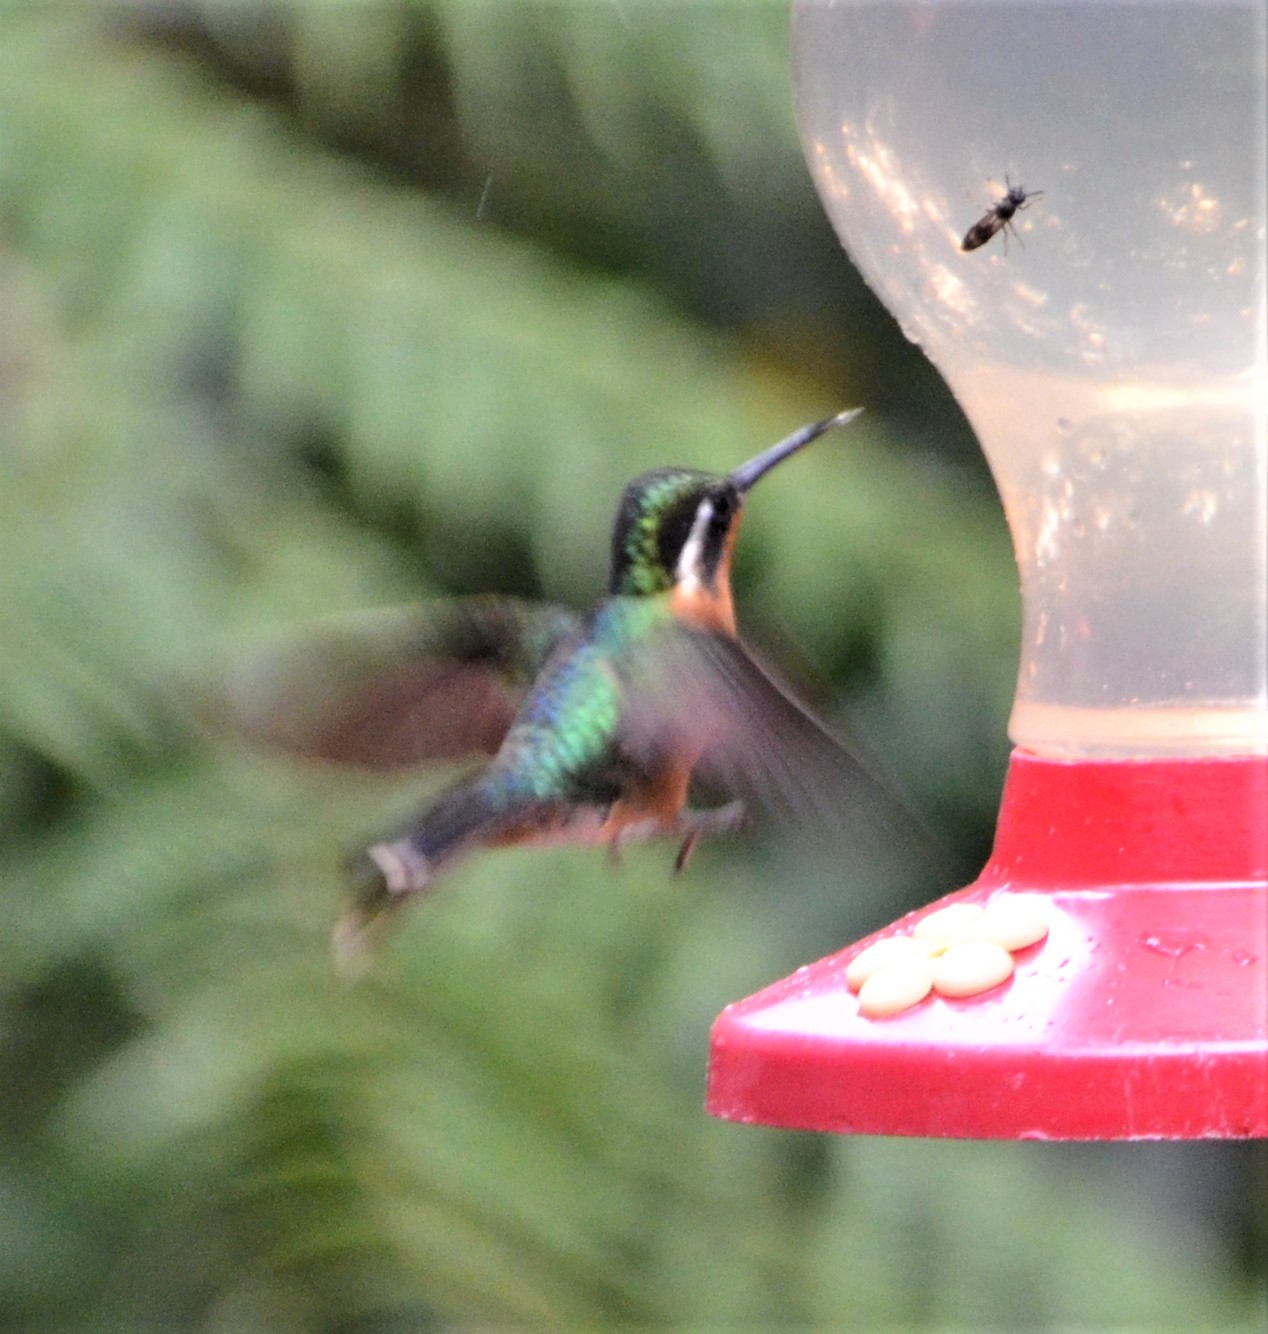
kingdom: Animalia
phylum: Chordata
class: Aves
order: Apodiformes
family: Trochilidae
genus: Lampornis
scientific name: Lampornis calolaemus
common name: Purple-throated mountain-gem
